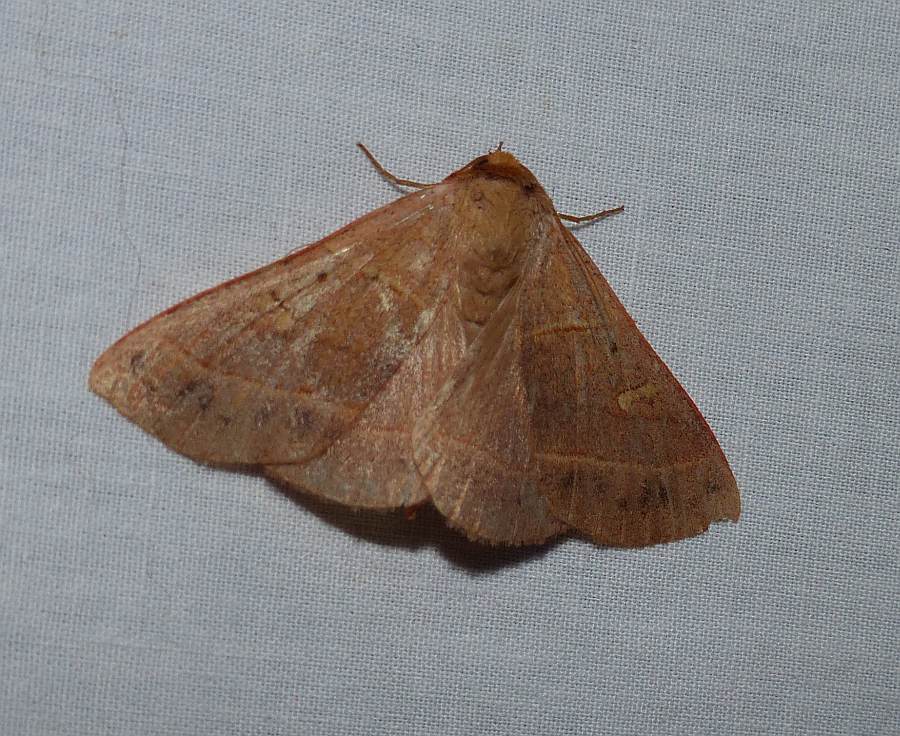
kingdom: Animalia
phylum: Arthropoda
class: Insecta
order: Lepidoptera
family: Erebidae
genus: Panopoda
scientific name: Panopoda rufimargo
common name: Red-lined panopoda moth
